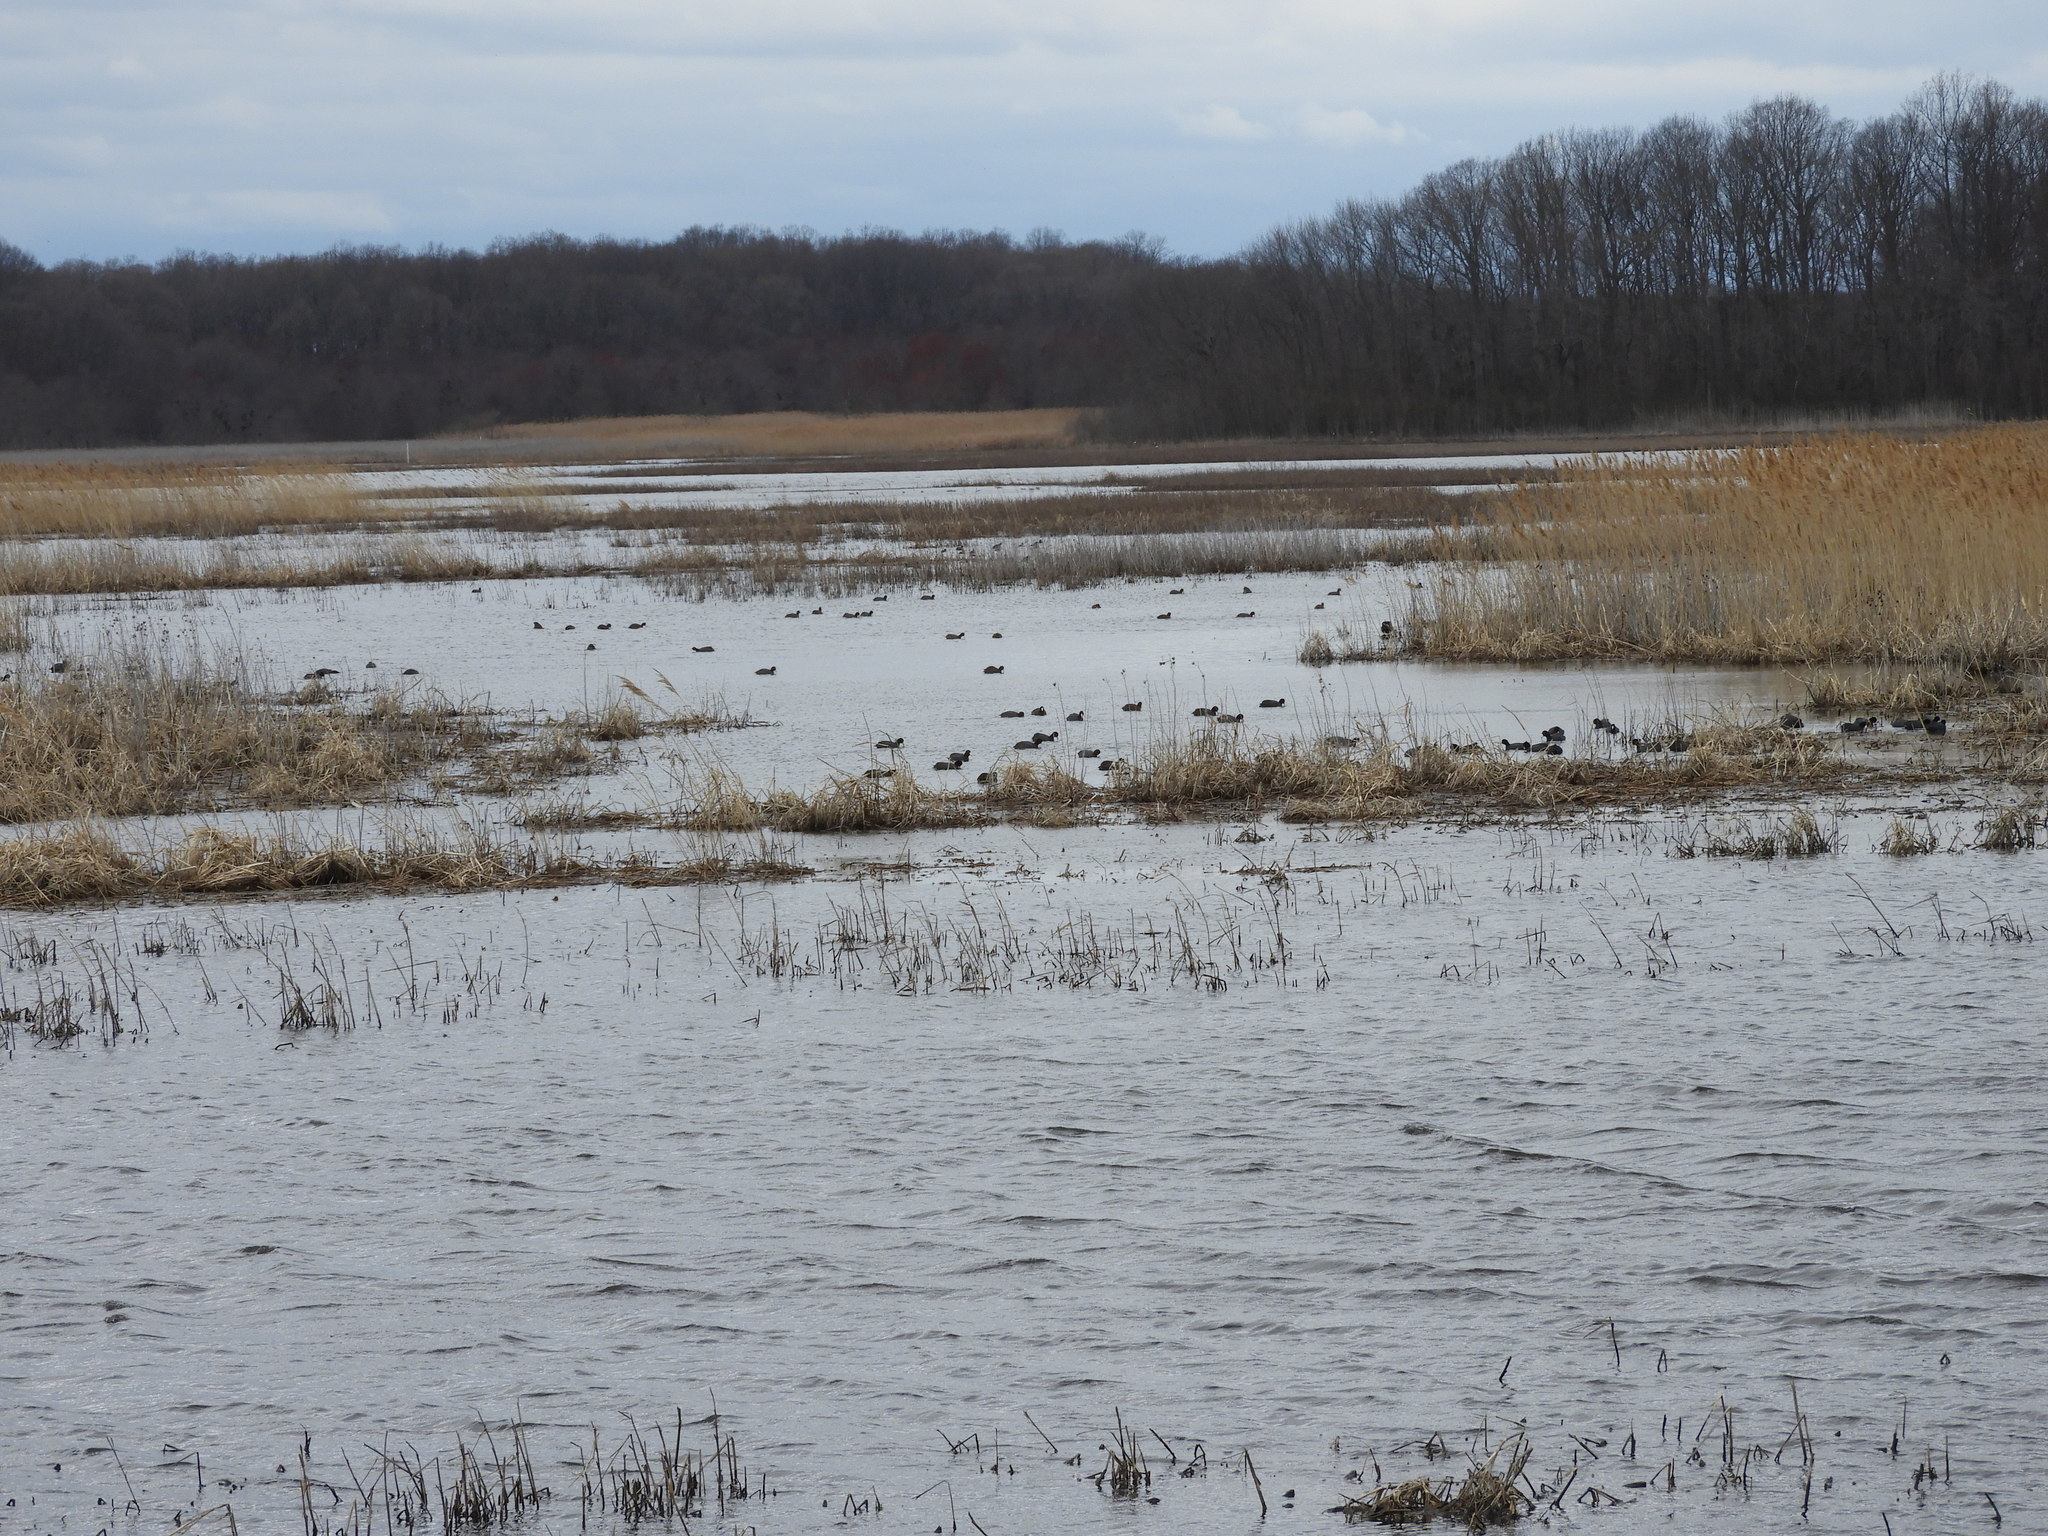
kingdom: Animalia
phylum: Chordata
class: Aves
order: Gruiformes
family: Rallidae
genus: Fulica
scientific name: Fulica americana
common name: American coot
